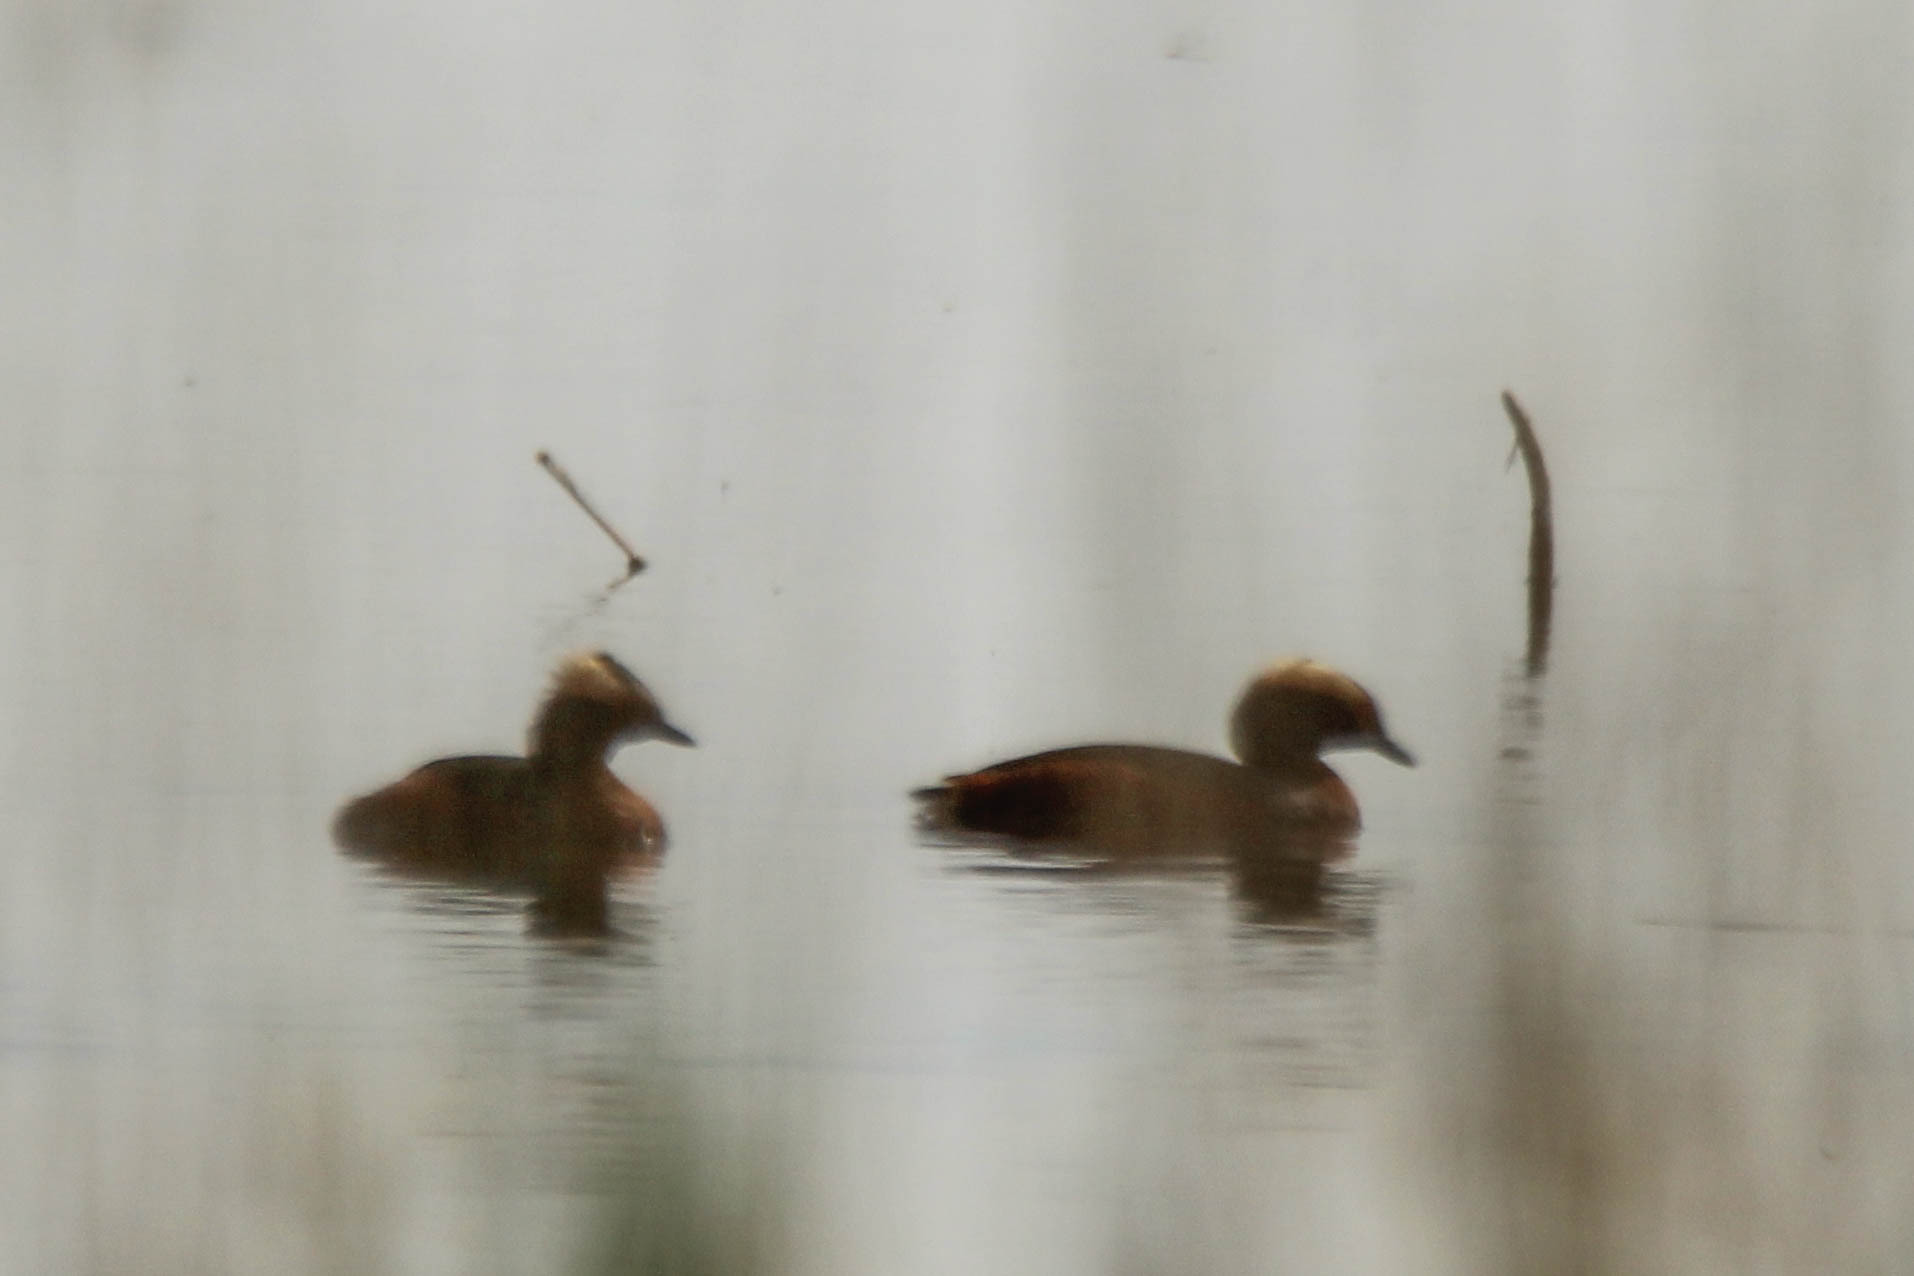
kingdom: Animalia
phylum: Chordata
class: Aves
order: Podicipediformes
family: Podicipedidae
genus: Podiceps
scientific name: Podiceps auritus
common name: Horned grebe
